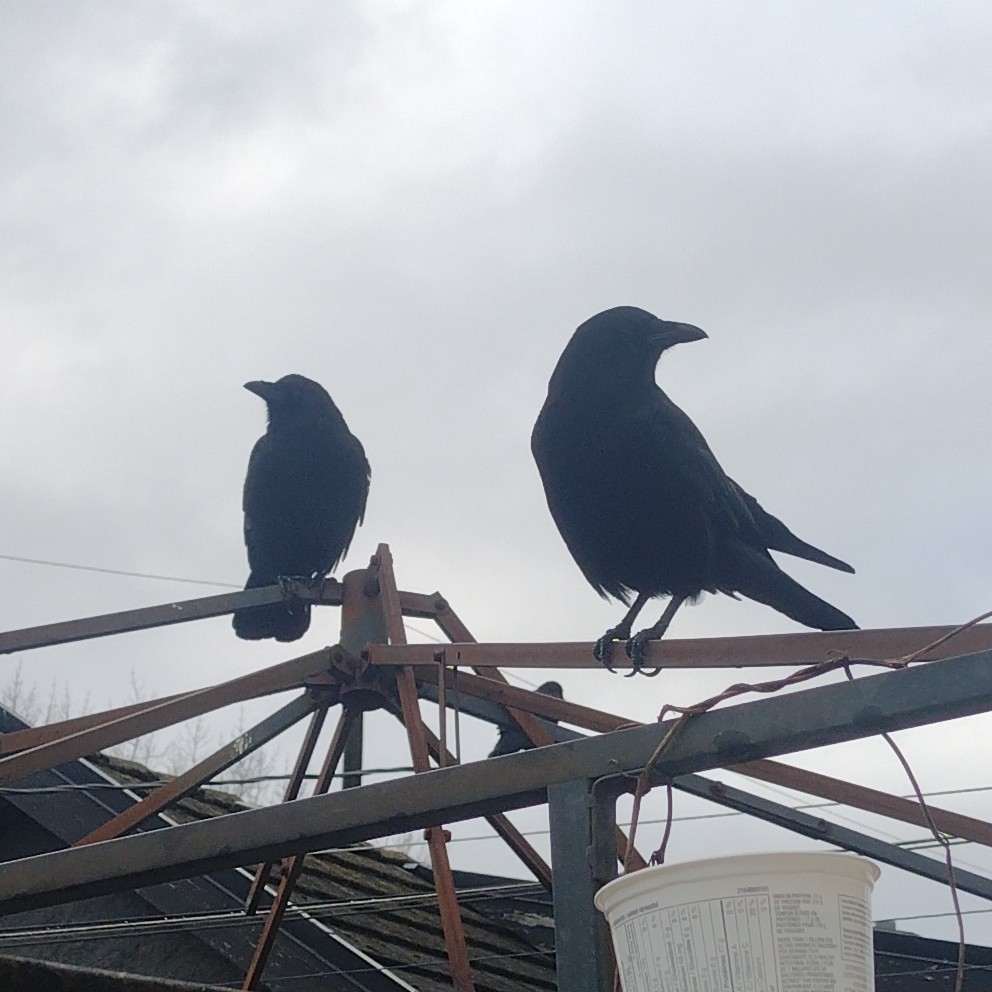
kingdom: Animalia
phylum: Chordata
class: Aves
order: Passeriformes
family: Corvidae
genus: Corvus
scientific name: Corvus brachyrhynchos
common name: American crow
